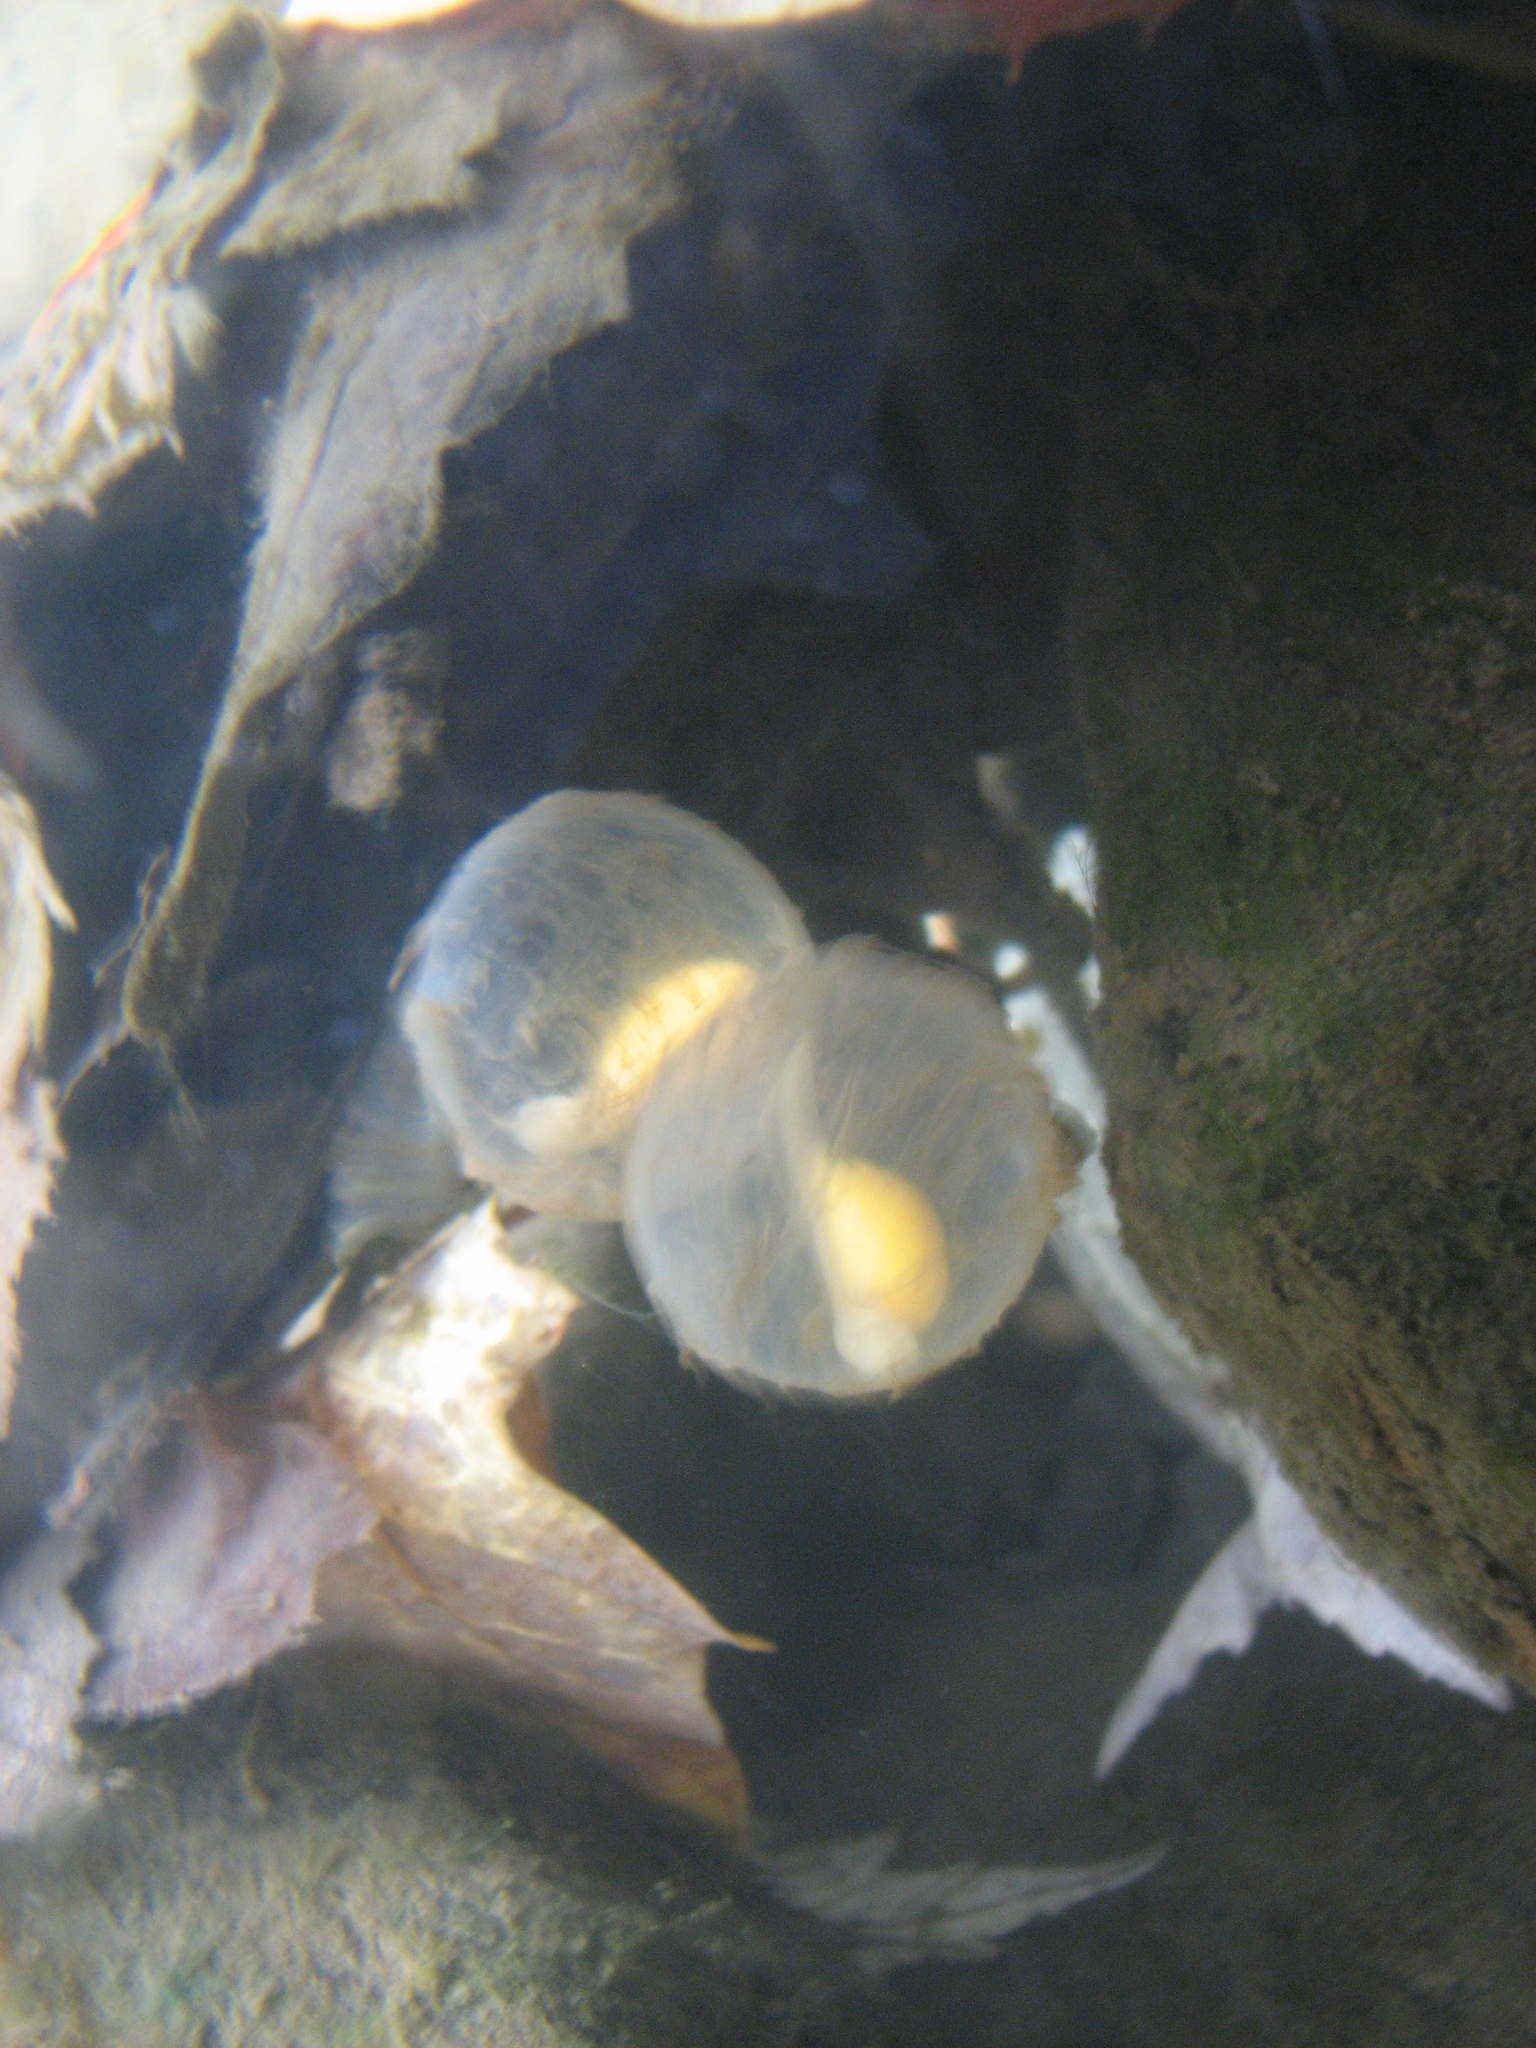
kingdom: Animalia
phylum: Chordata
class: Amphibia
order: Caudata
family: Cryptobranchidae
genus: Cryptobranchus
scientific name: Cryptobranchus alleganiensis
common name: Hellbender
